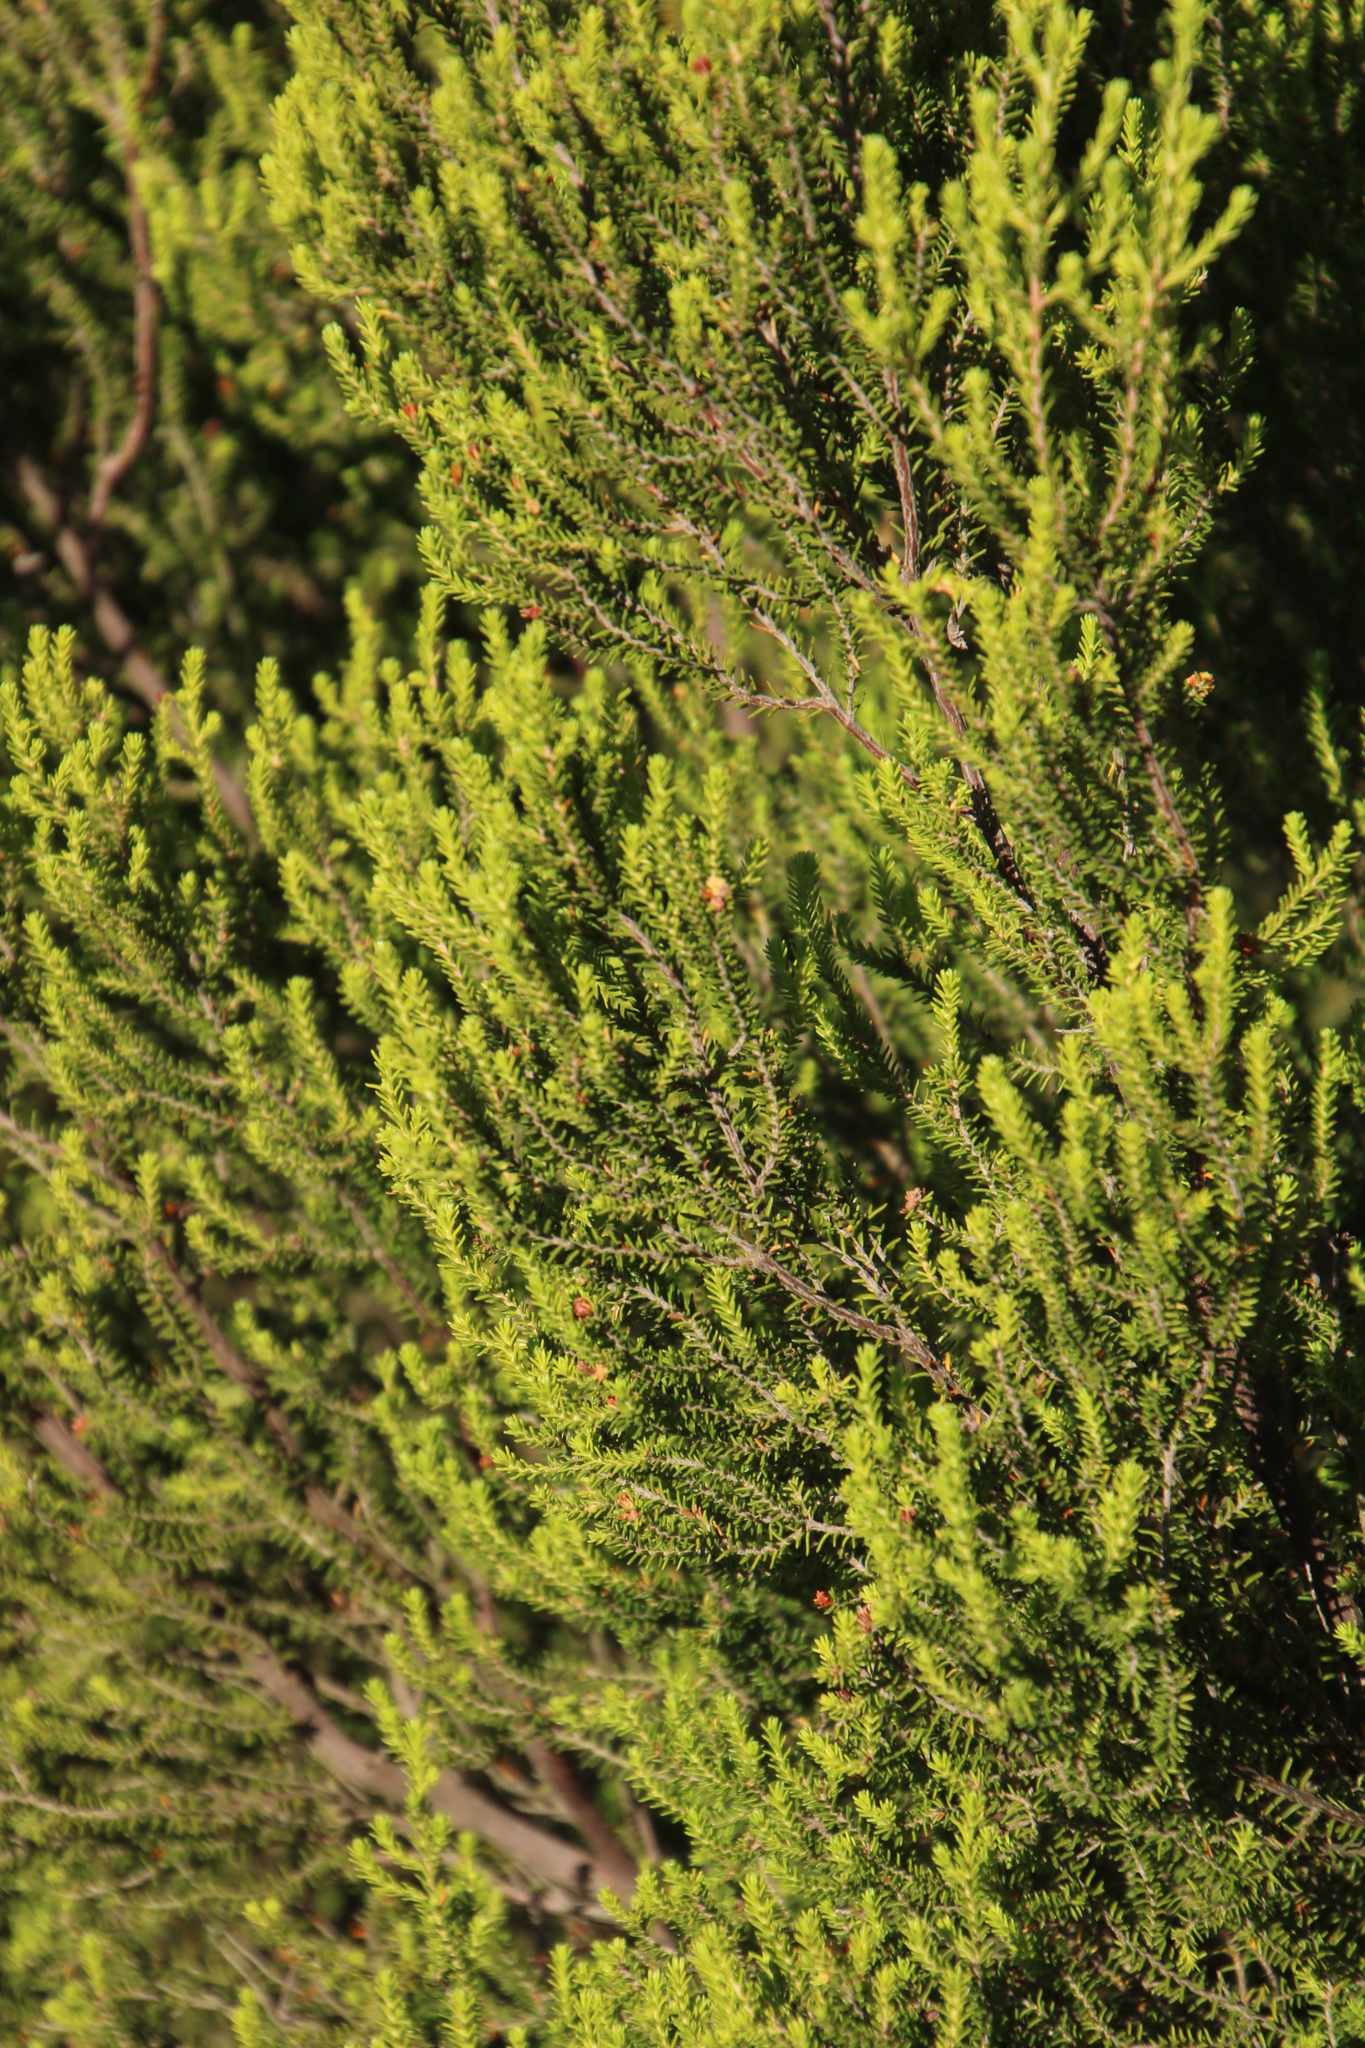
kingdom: Plantae
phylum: Tracheophyta
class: Magnoliopsida
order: Ericales
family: Ericaceae
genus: Erica
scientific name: Erica tristis
